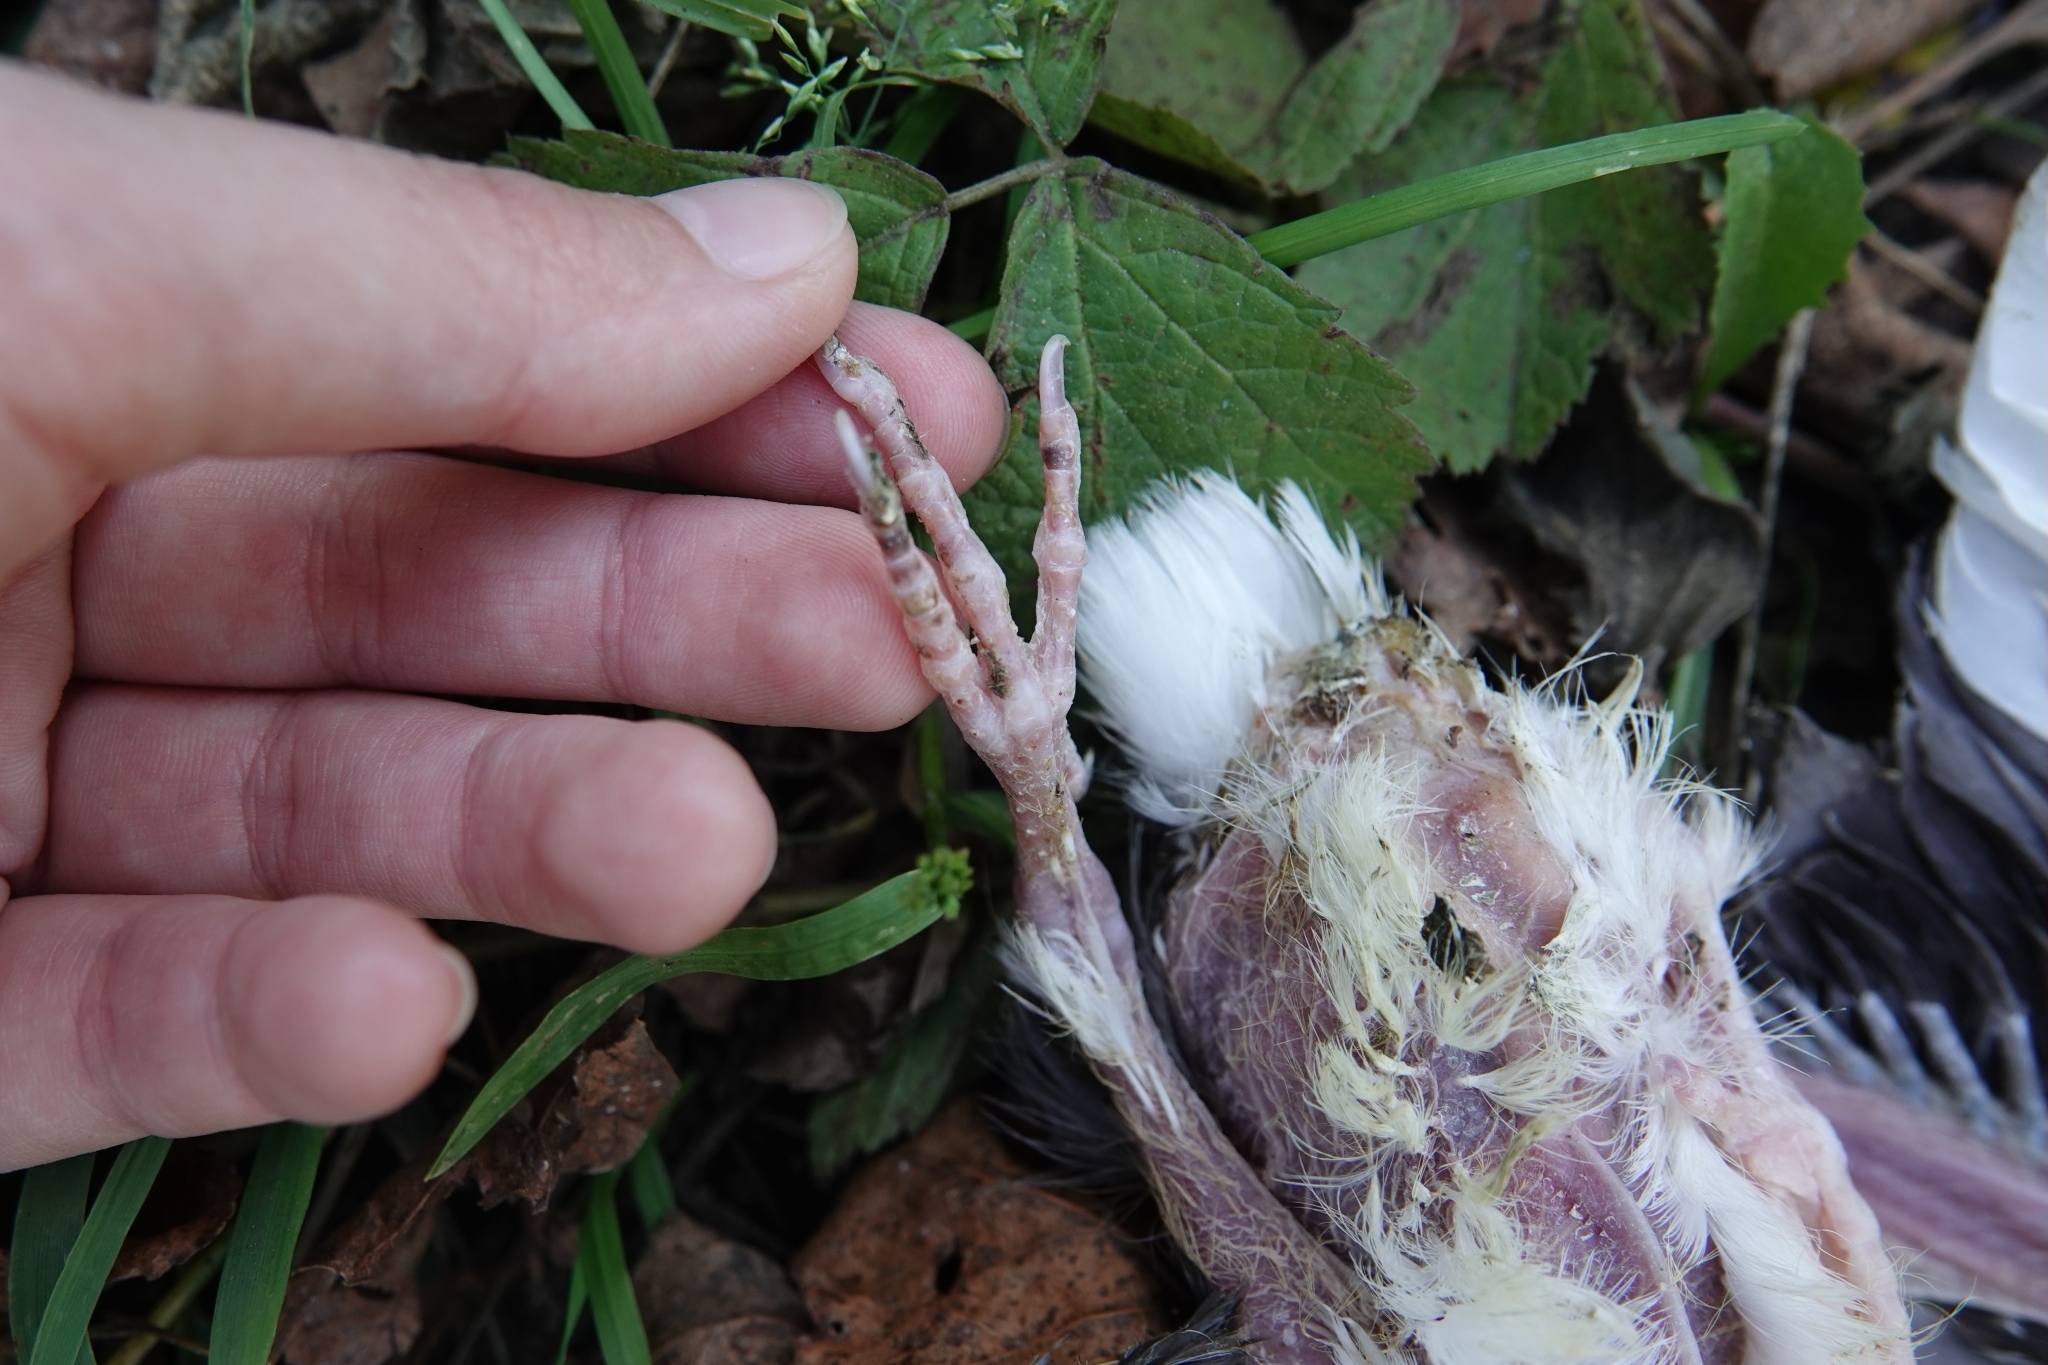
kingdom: Animalia
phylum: Chordata
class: Aves
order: Columbiformes
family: Columbidae
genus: Columba
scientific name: Columba livia
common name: Rock pigeon
